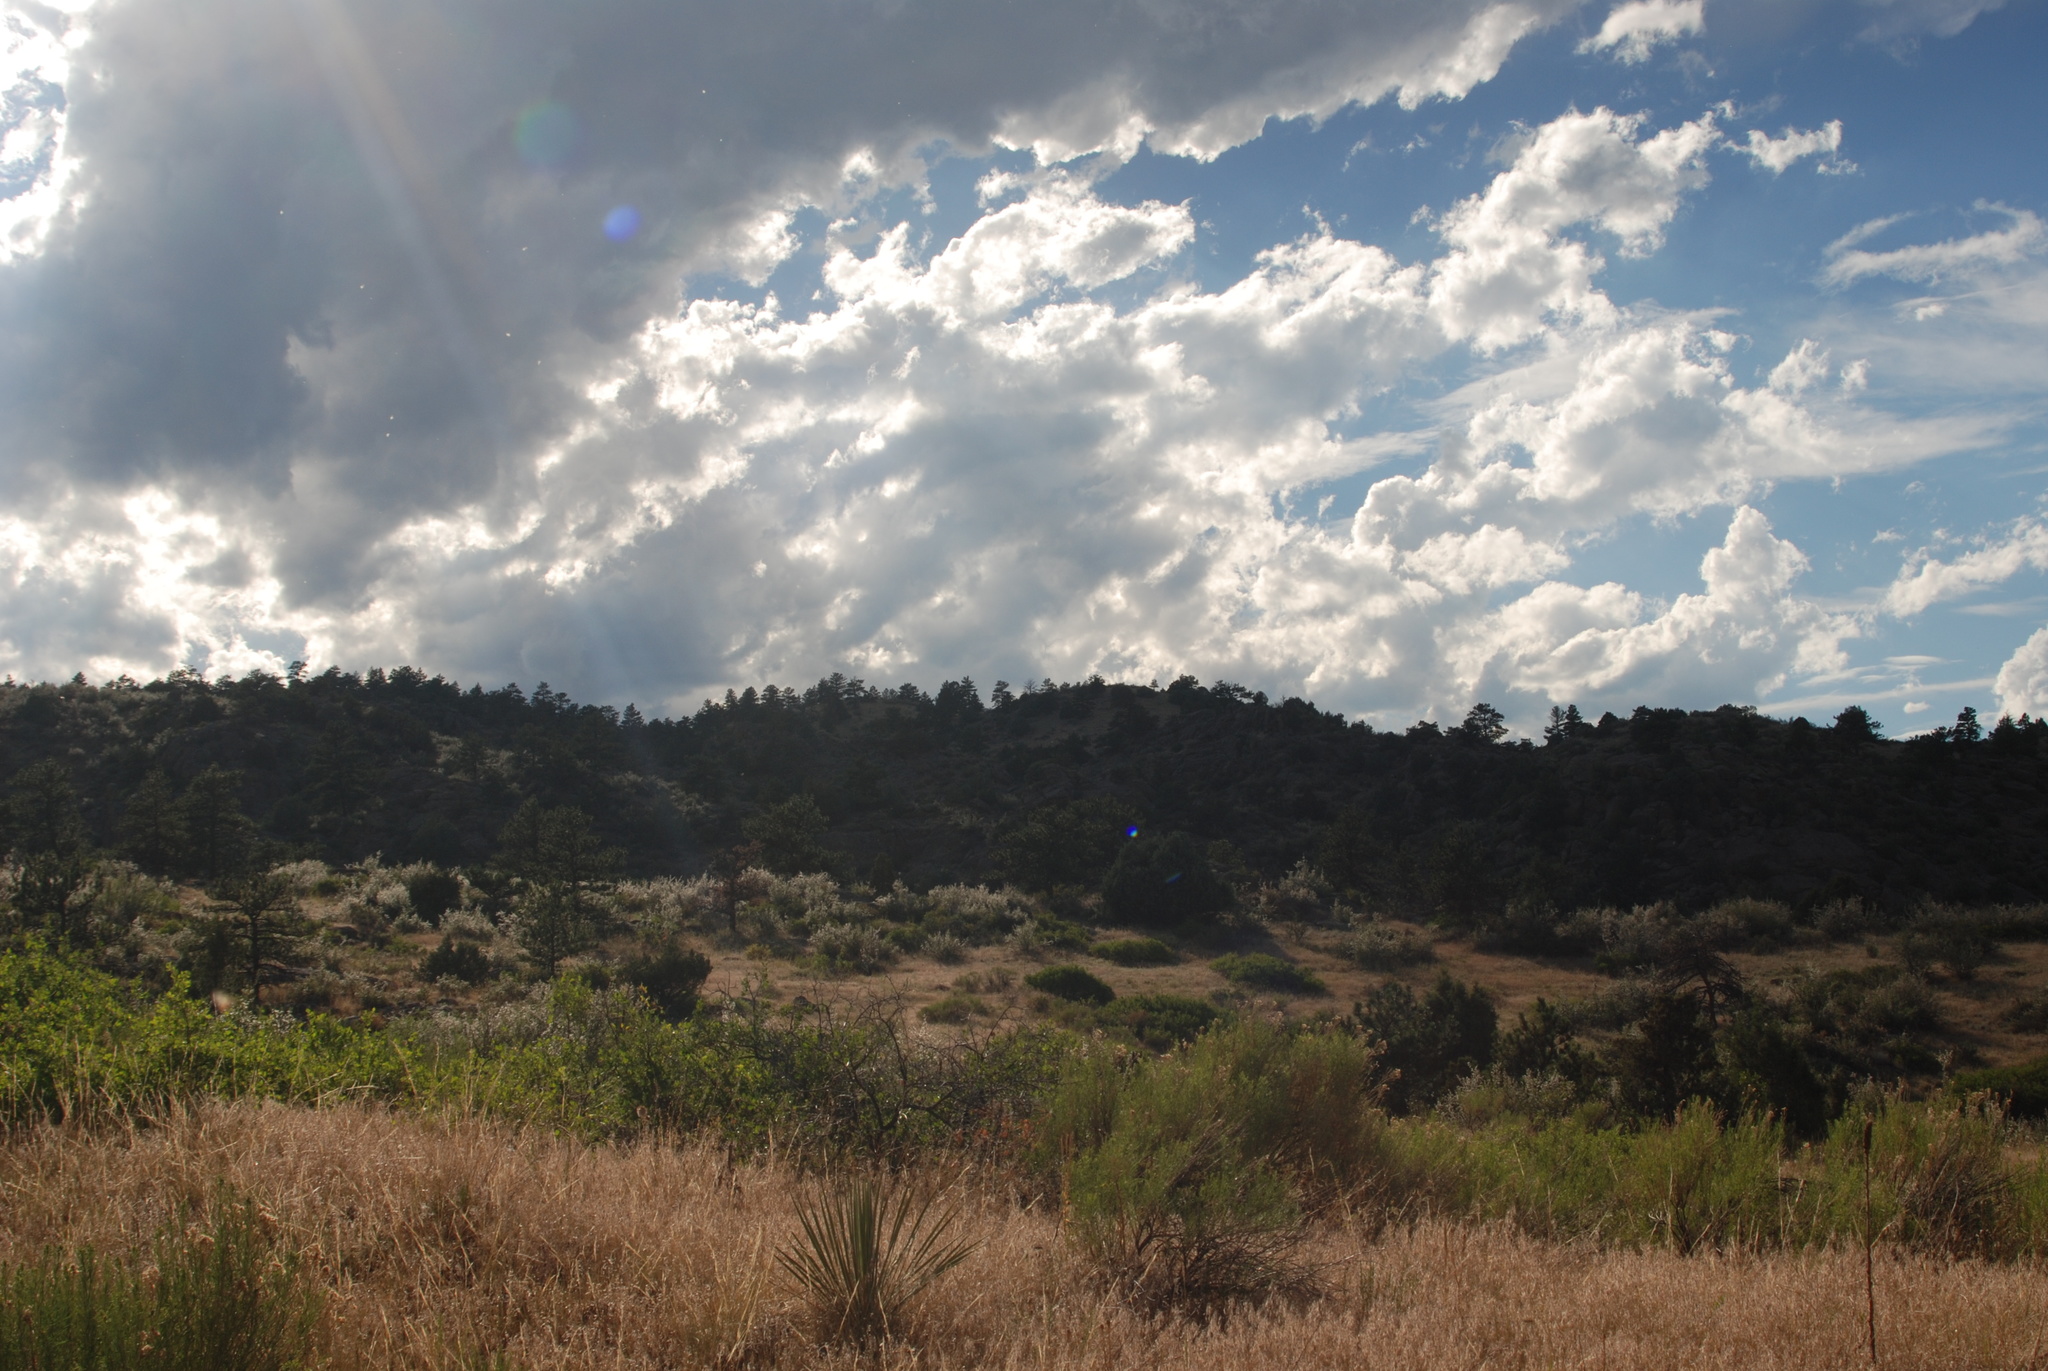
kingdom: Plantae
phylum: Tracheophyta
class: Liliopsida
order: Asparagales
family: Asparagaceae
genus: Yucca
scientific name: Yucca glauca
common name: Great plains yucca
